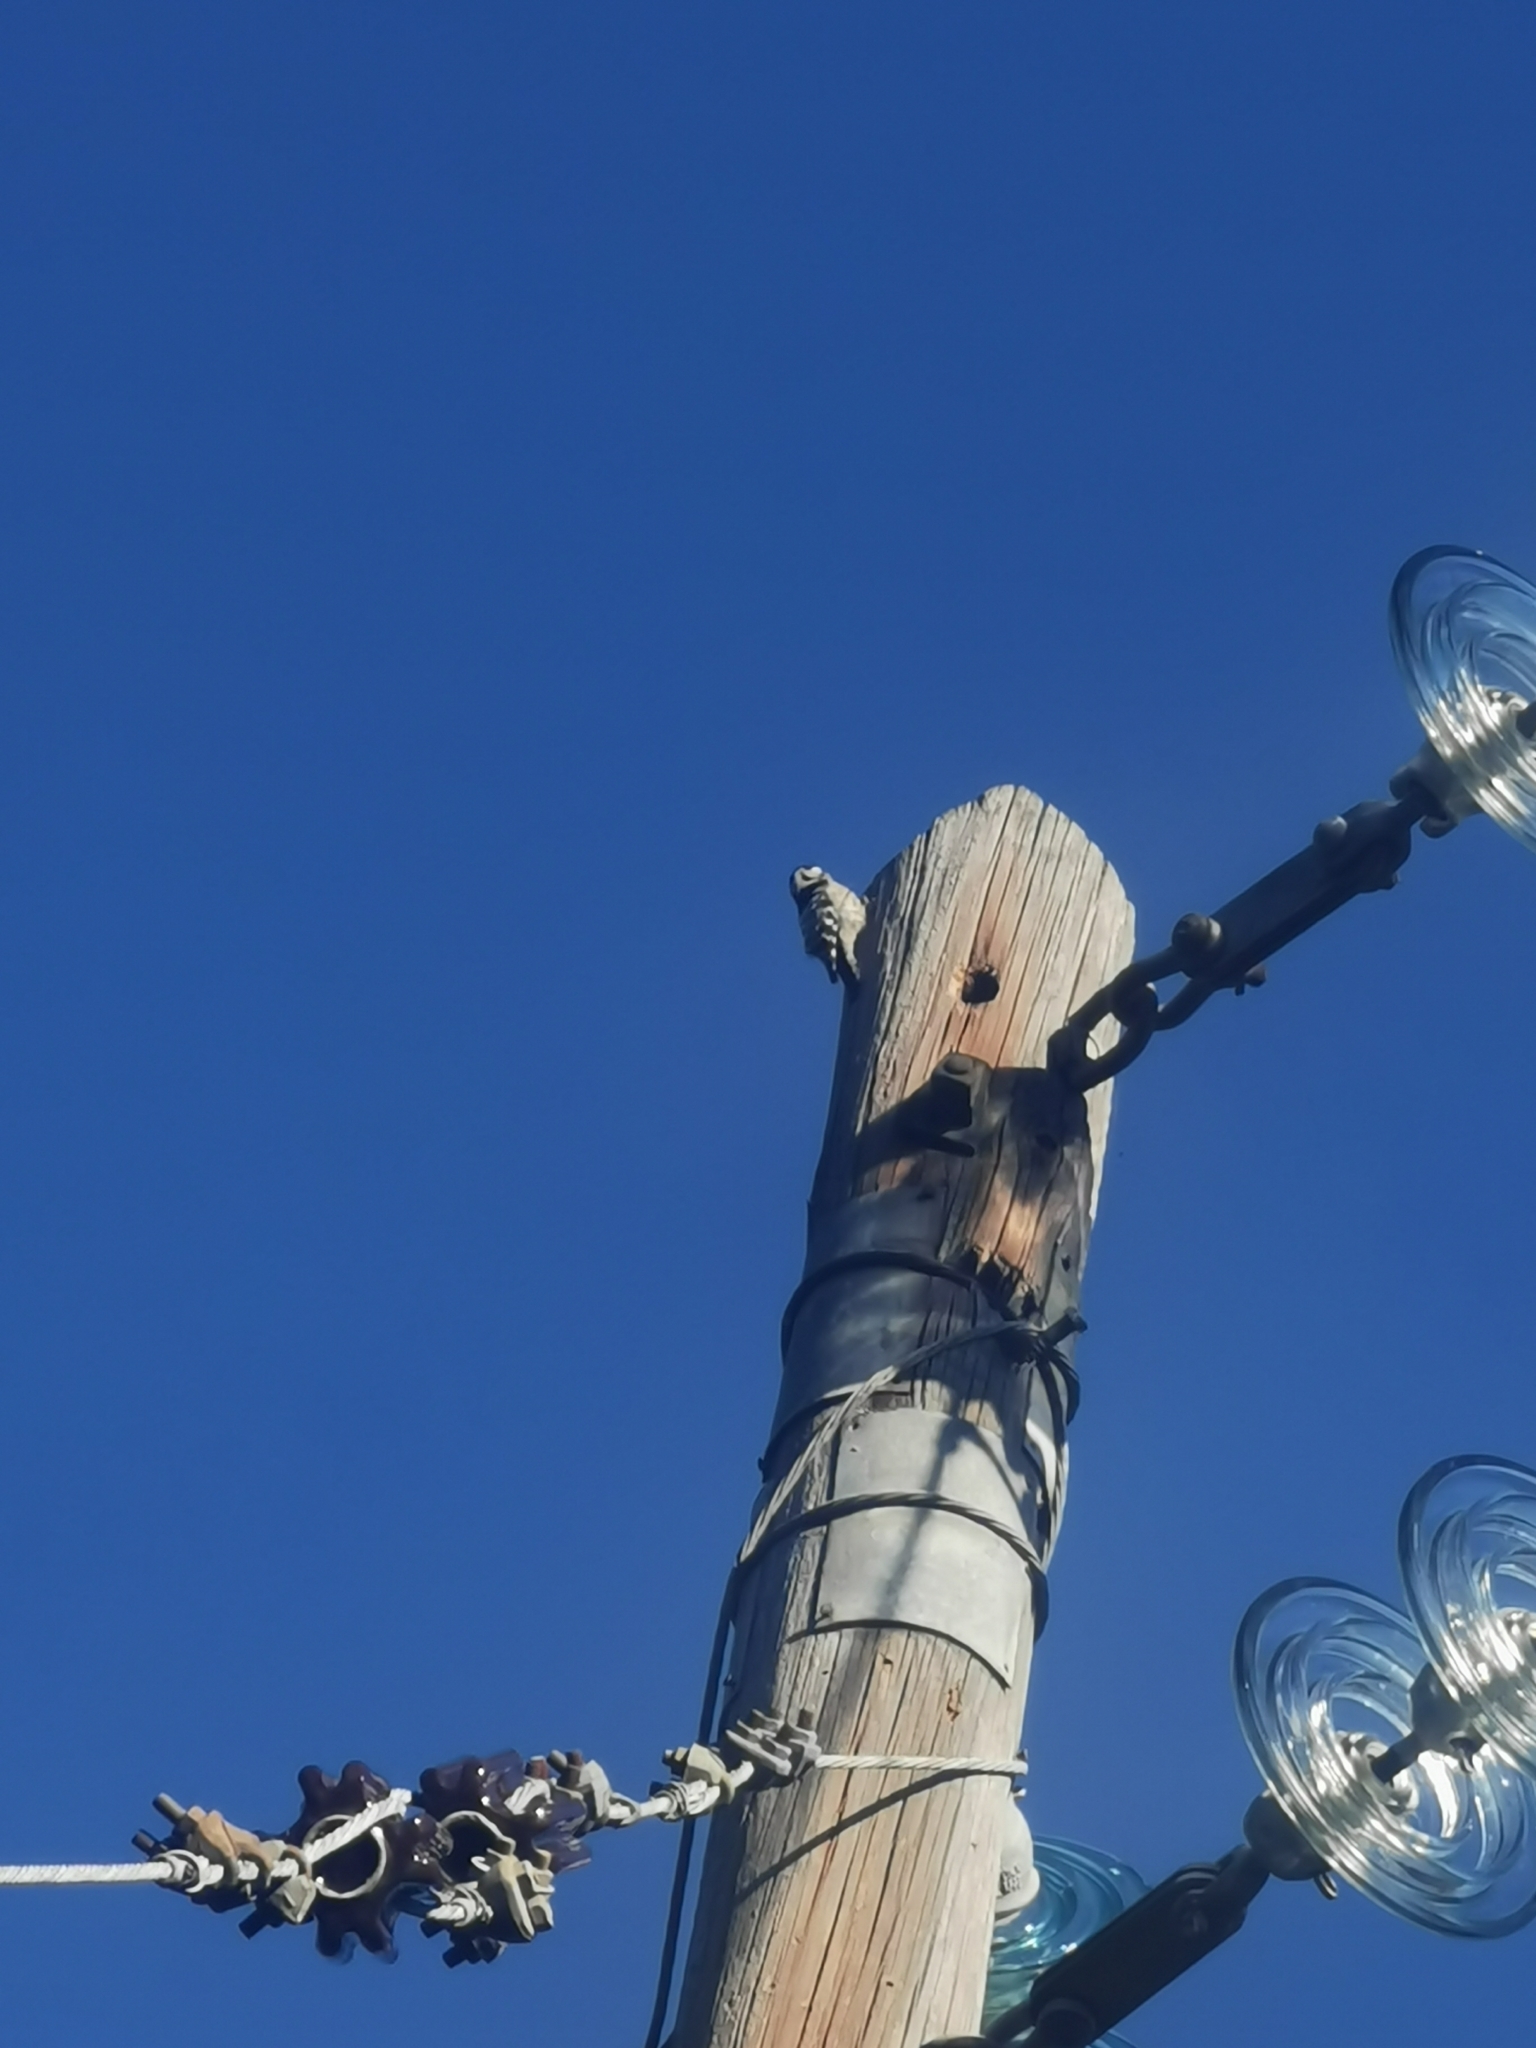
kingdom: Animalia
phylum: Chordata
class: Aves
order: Piciformes
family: Picidae
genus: Dryobates
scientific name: Dryobates minor
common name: Lesser spotted woodpecker
